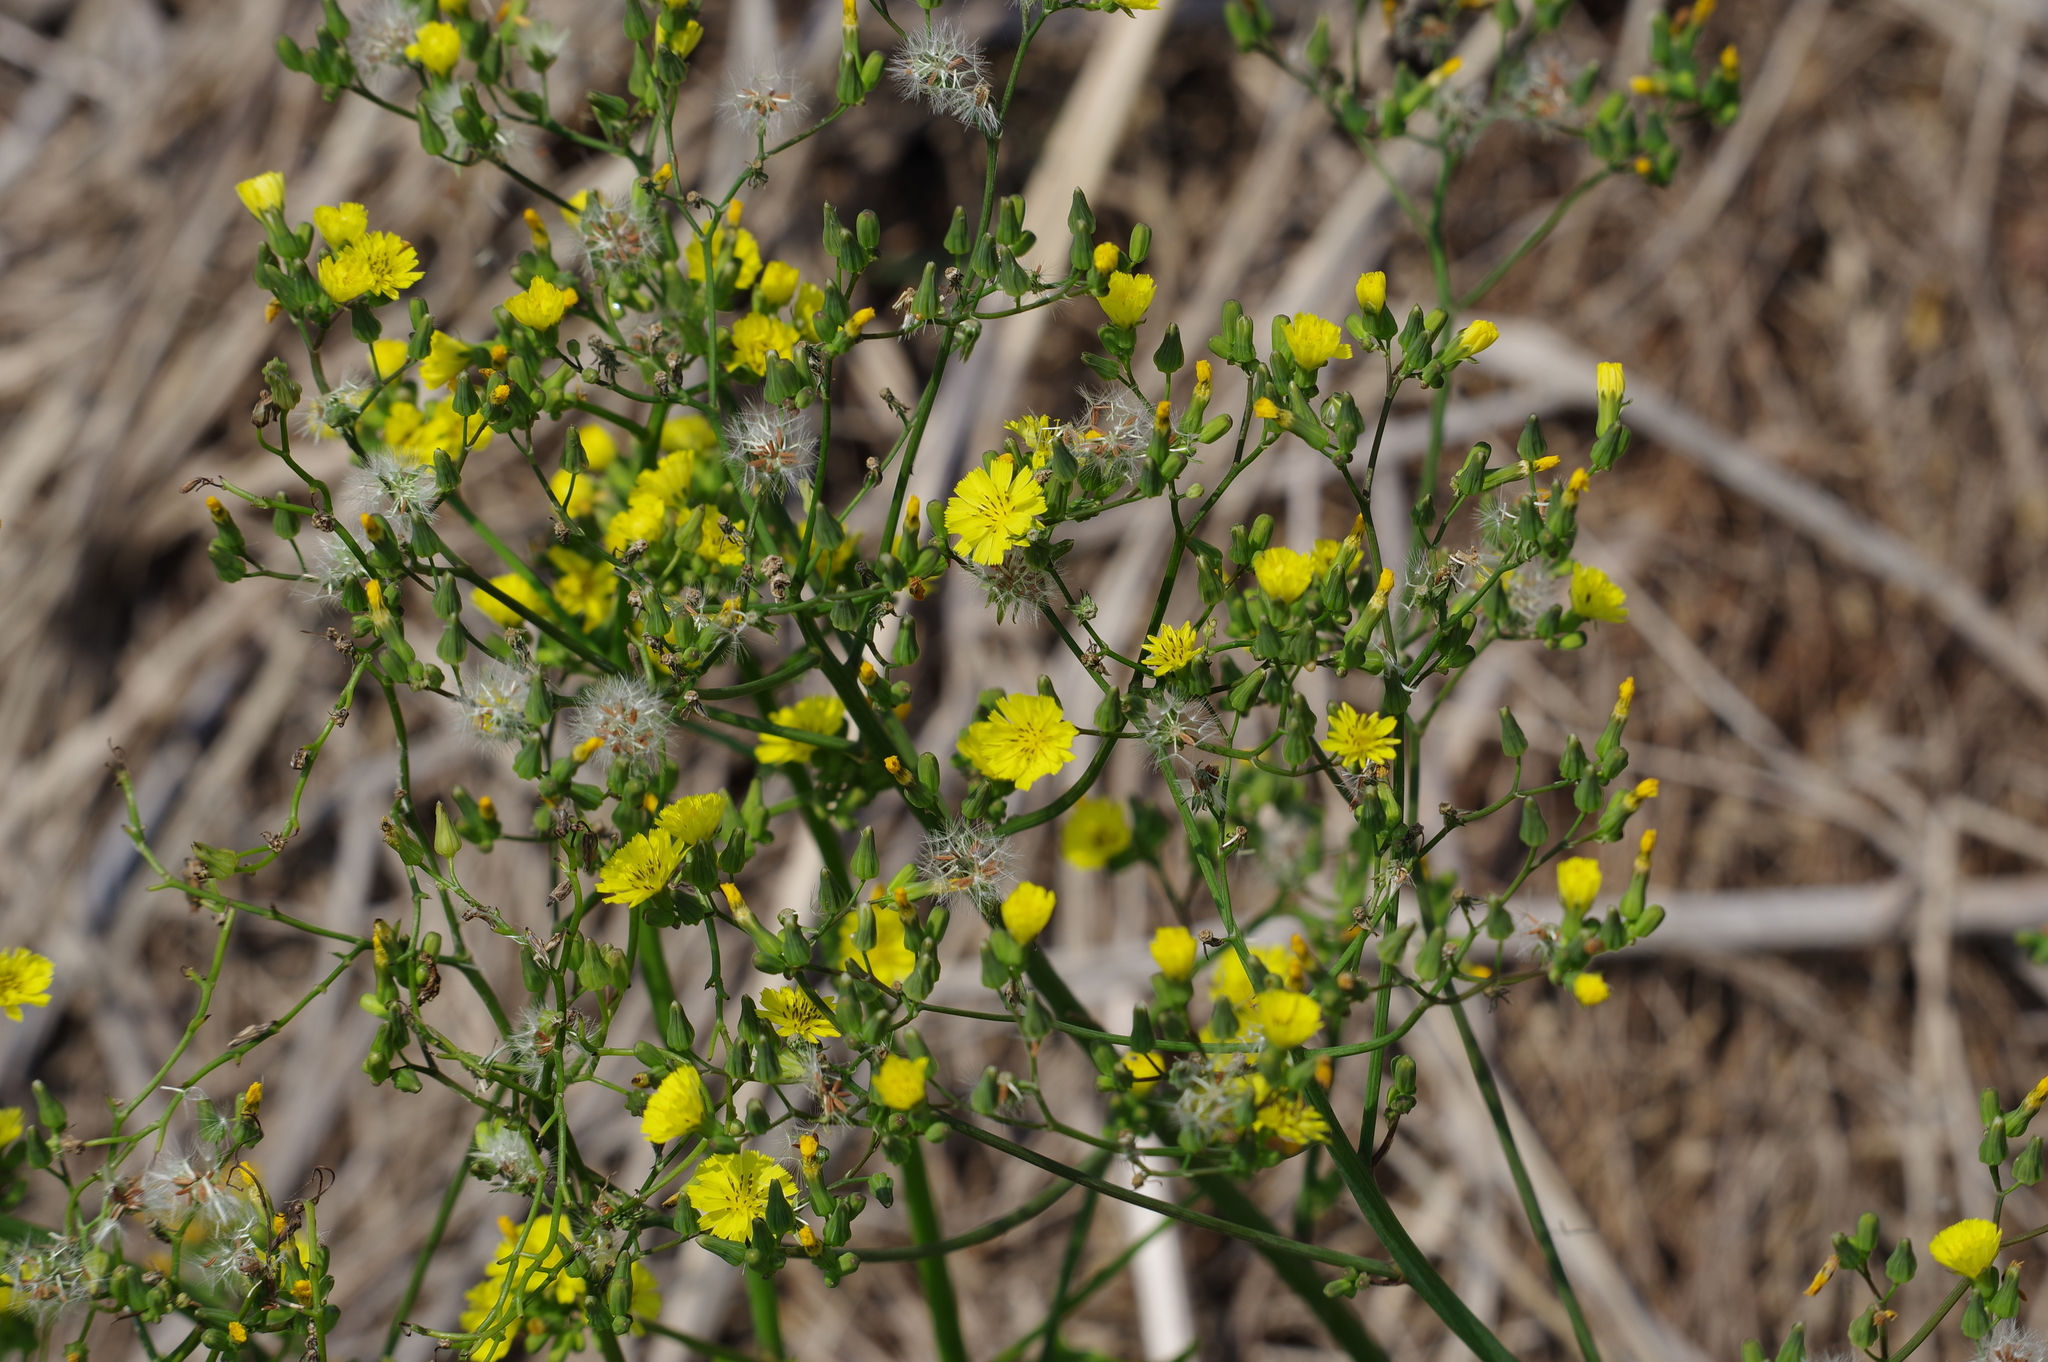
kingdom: Plantae
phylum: Tracheophyta
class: Magnoliopsida
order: Asterales
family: Asteraceae
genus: Youngia
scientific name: Youngia japonica
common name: Oriental false hawksbeard
